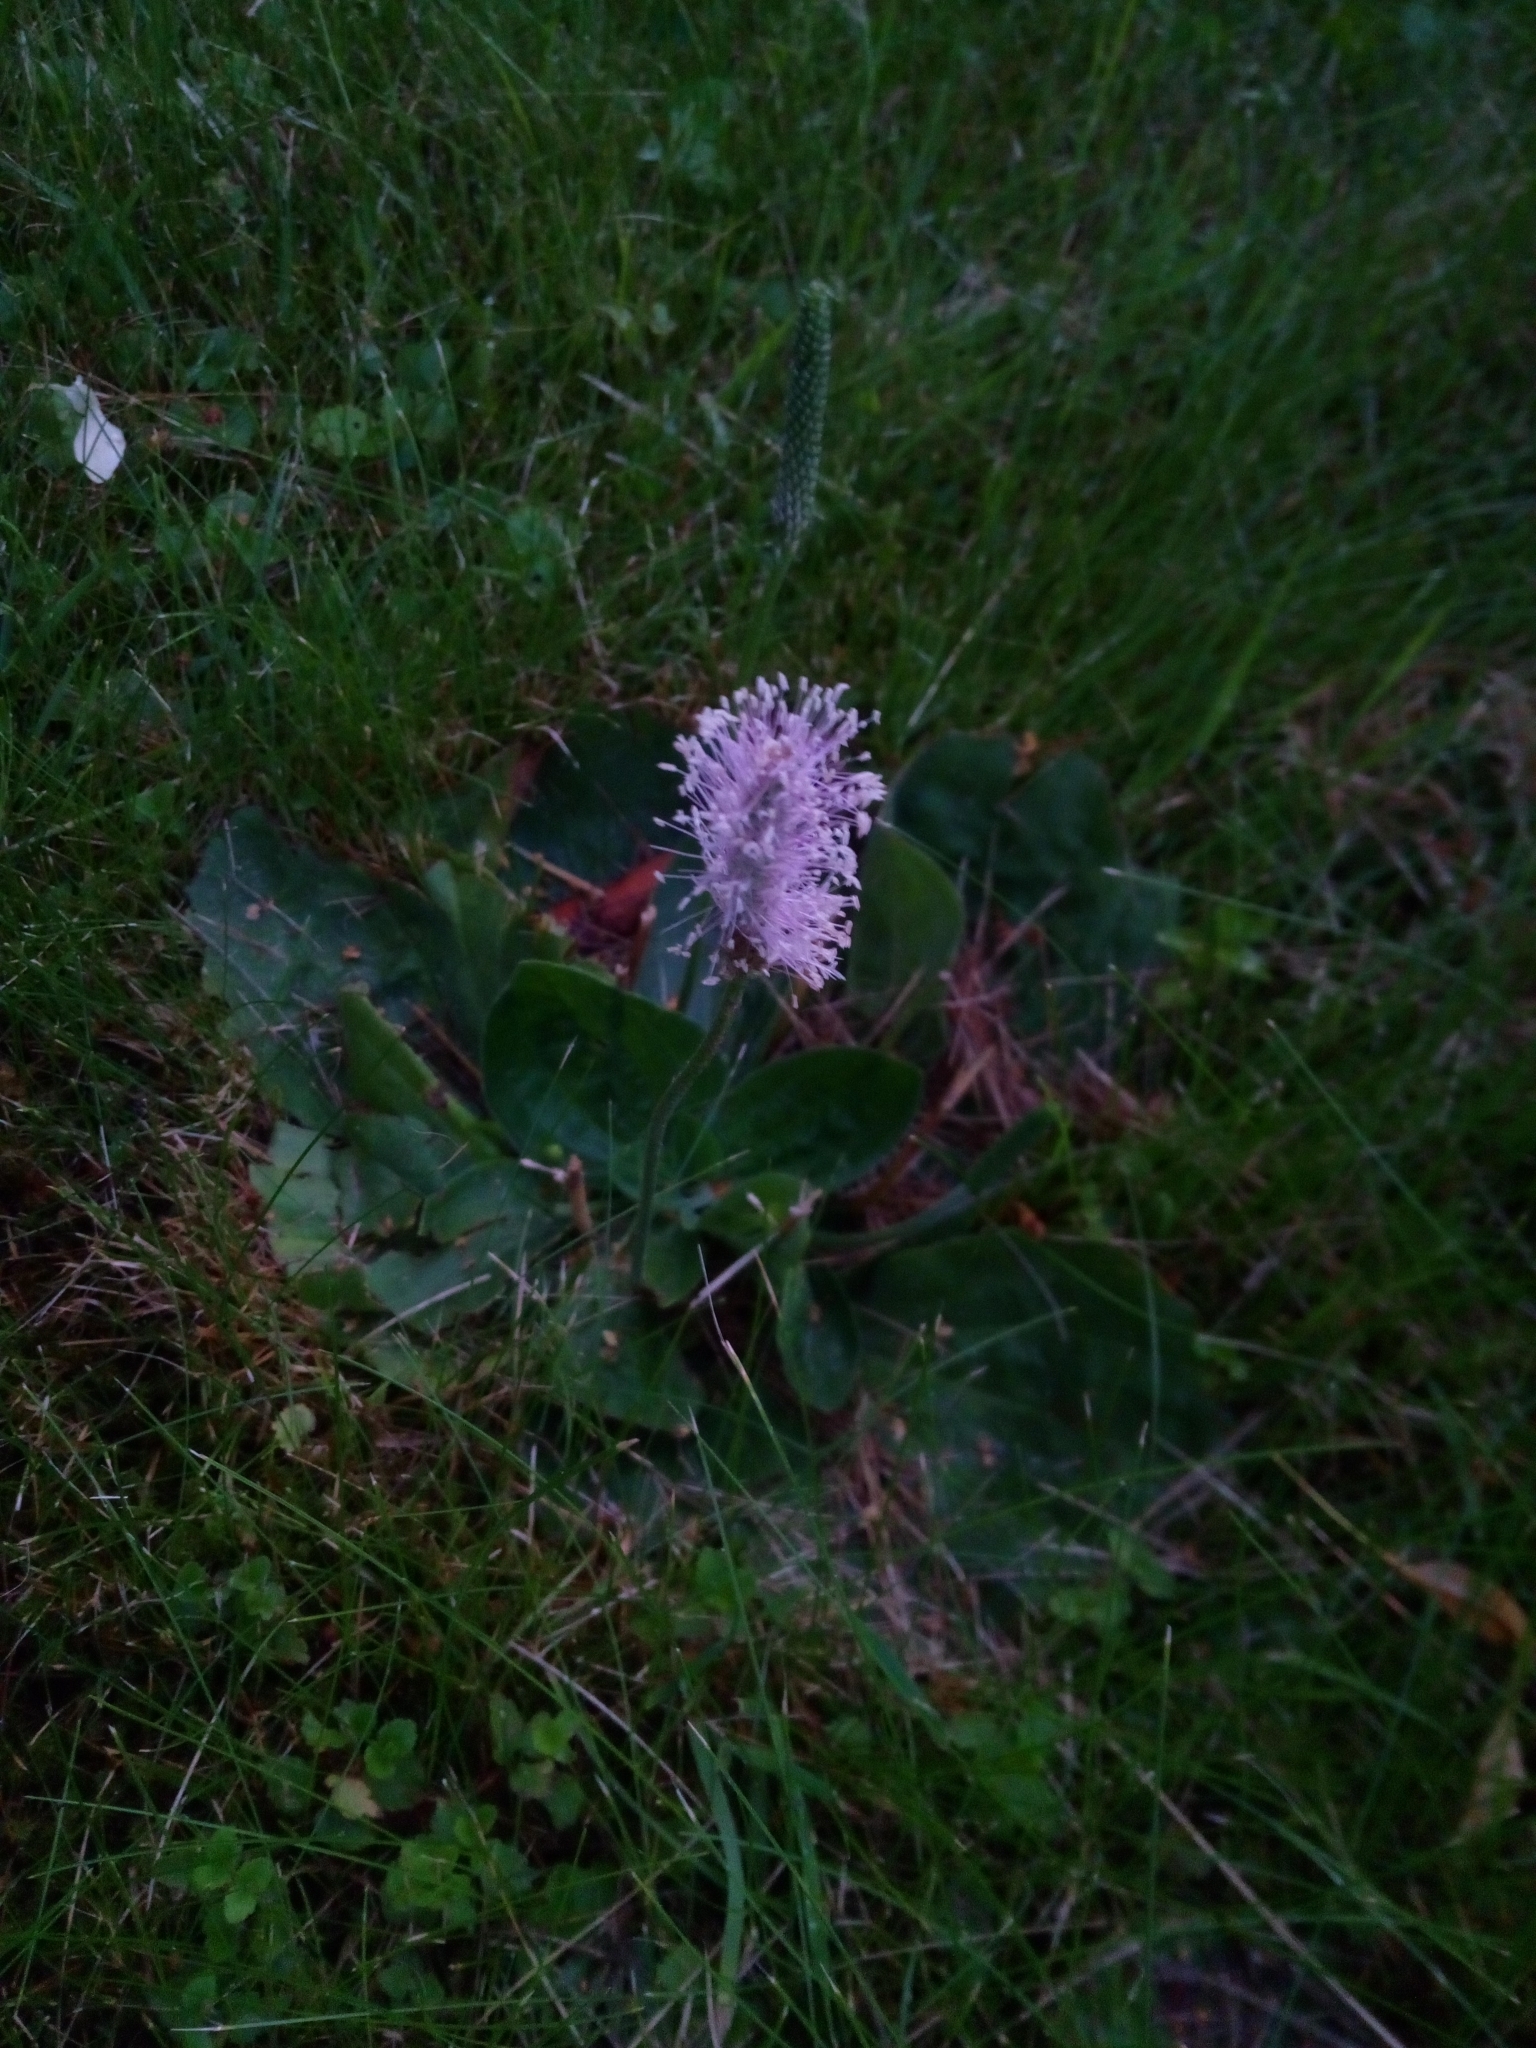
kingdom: Plantae
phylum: Tracheophyta
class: Magnoliopsida
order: Lamiales
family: Plantaginaceae
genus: Plantago
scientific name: Plantago media
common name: Hoary plantain
